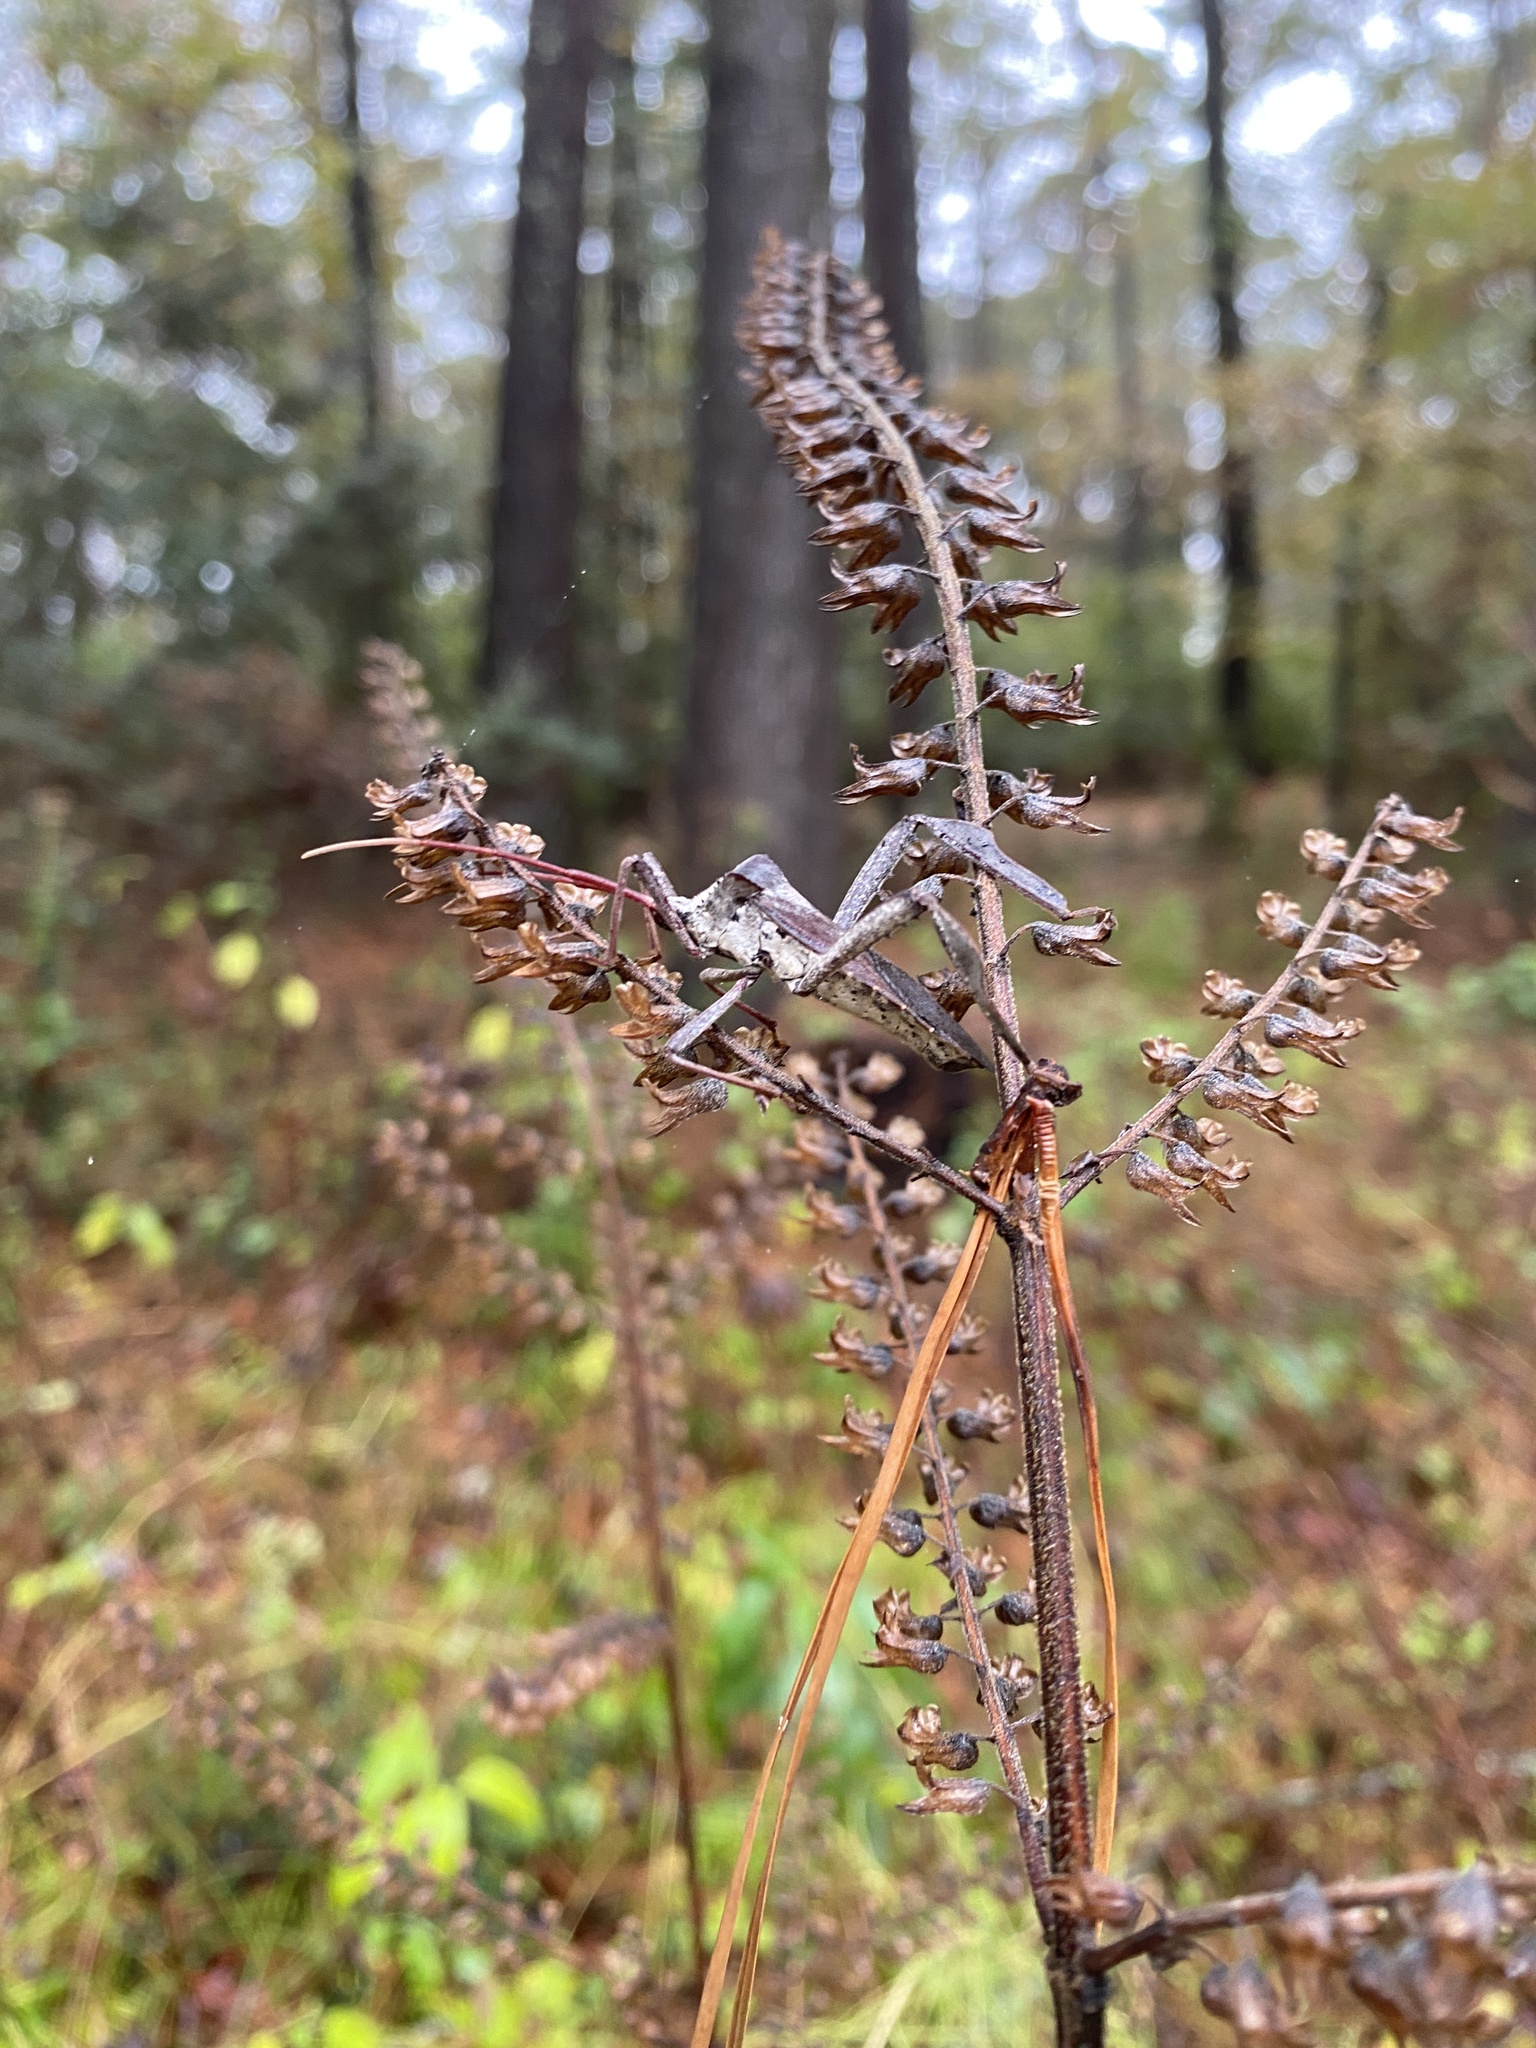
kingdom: Animalia
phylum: Arthropoda
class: Insecta
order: Hemiptera
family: Coreidae
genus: Acanthocephala
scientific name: Acanthocephala declivis
